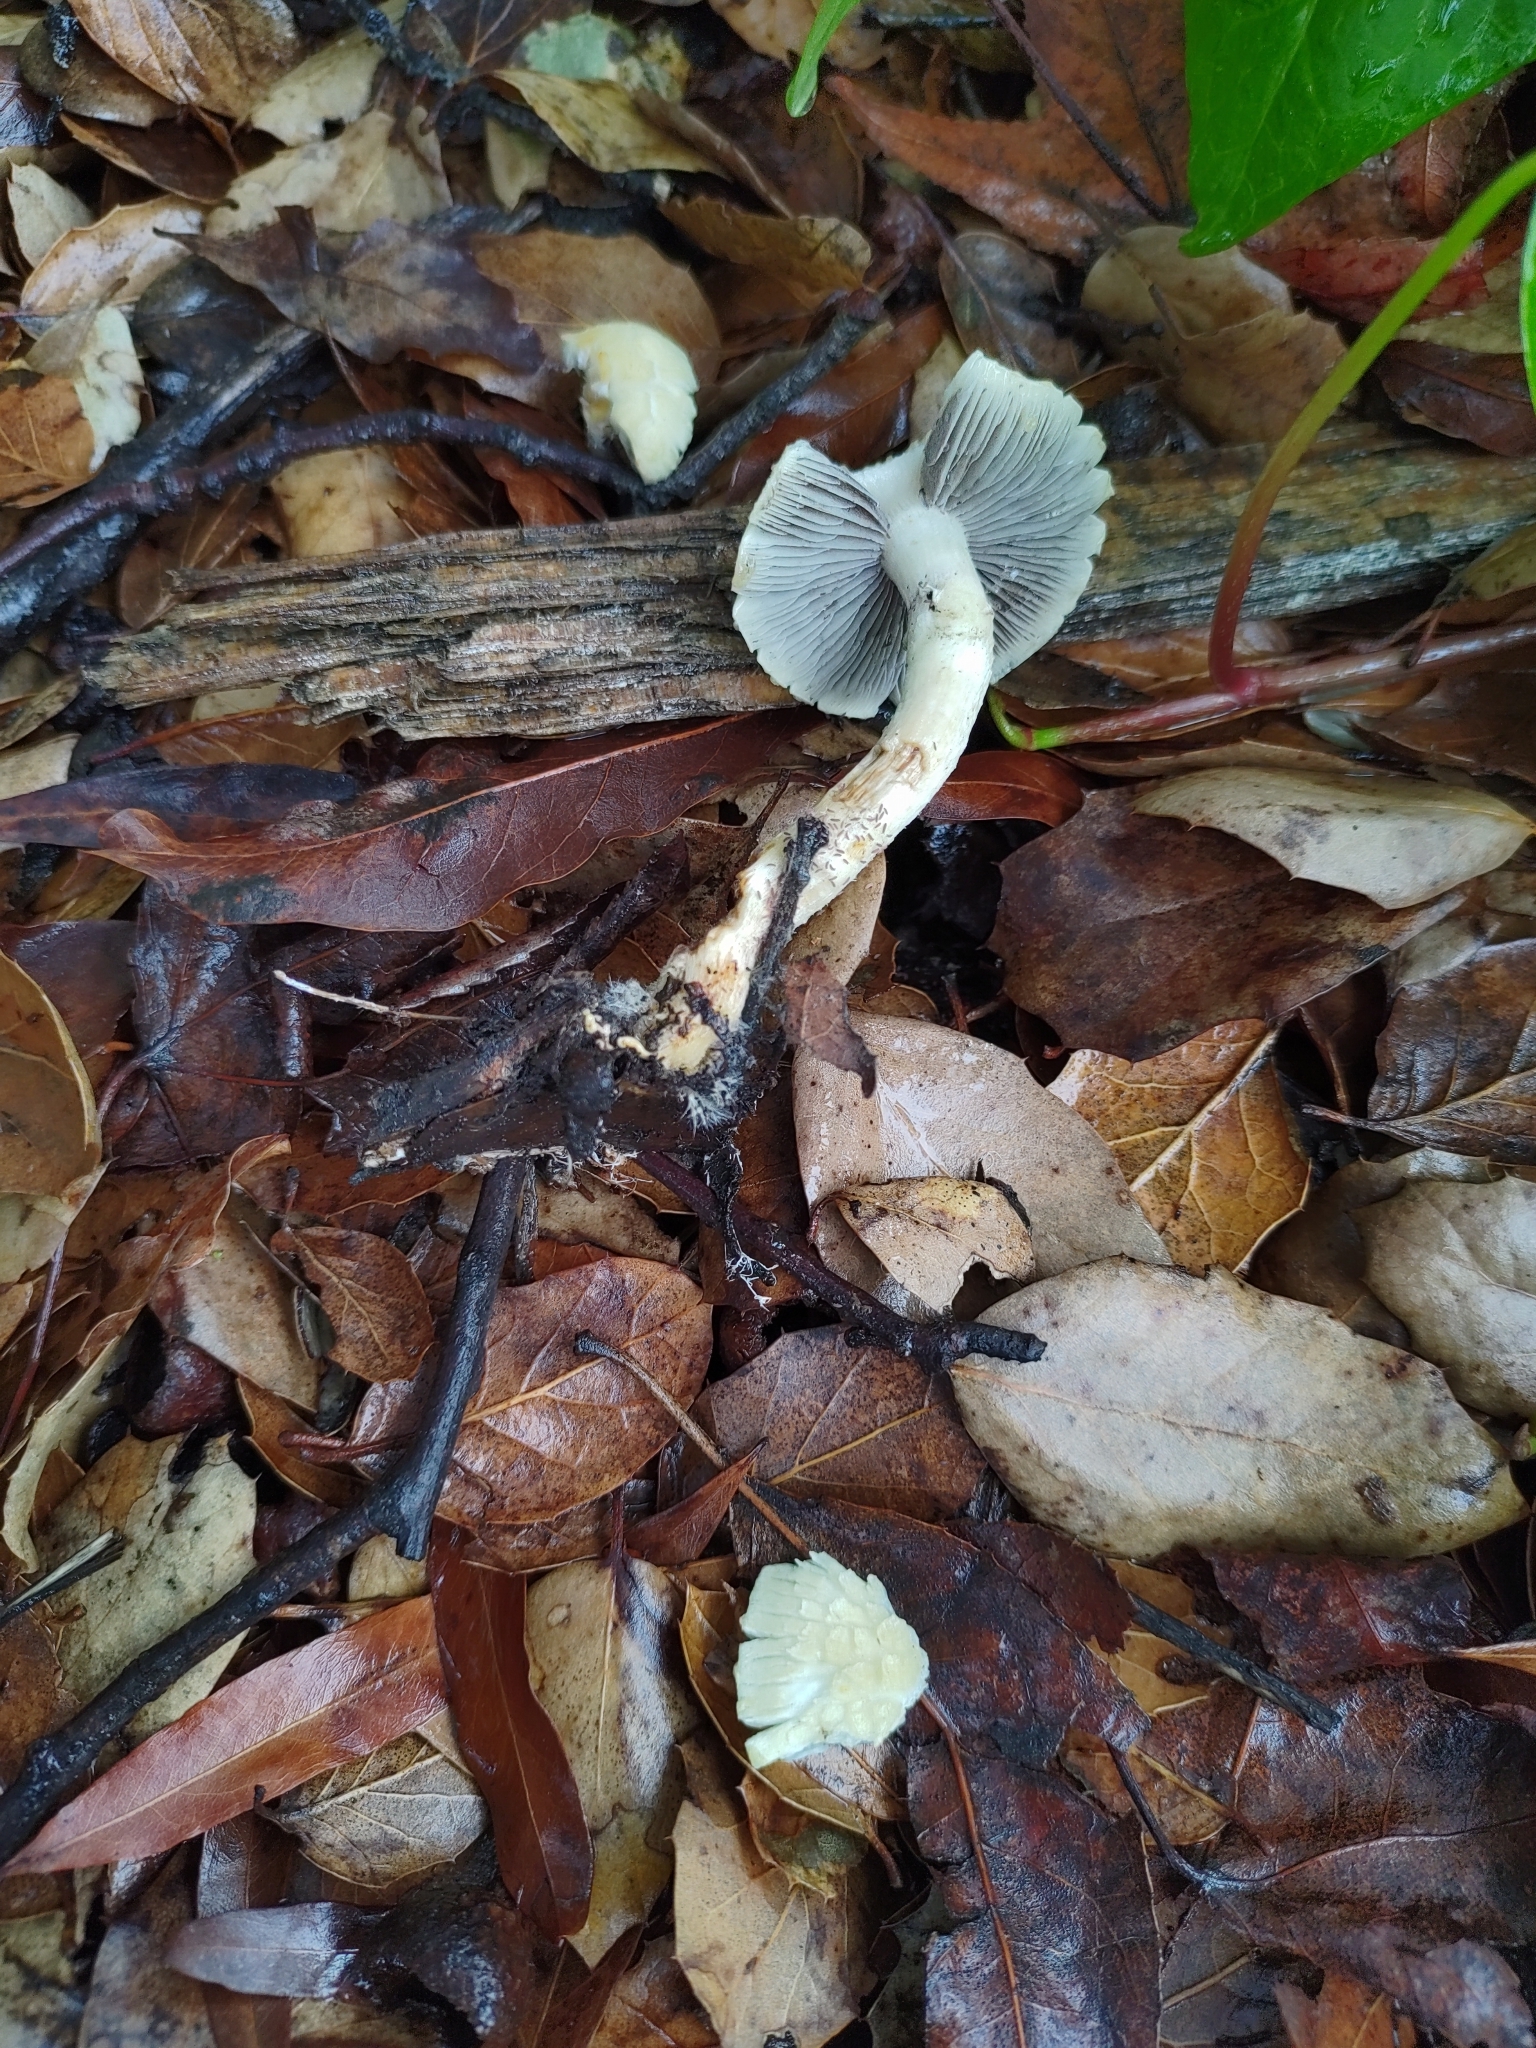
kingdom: Fungi
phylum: Basidiomycota
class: Agaricomycetes
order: Agaricales
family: Strophariaceae
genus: Leratiomyces
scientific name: Leratiomyces percevalii
